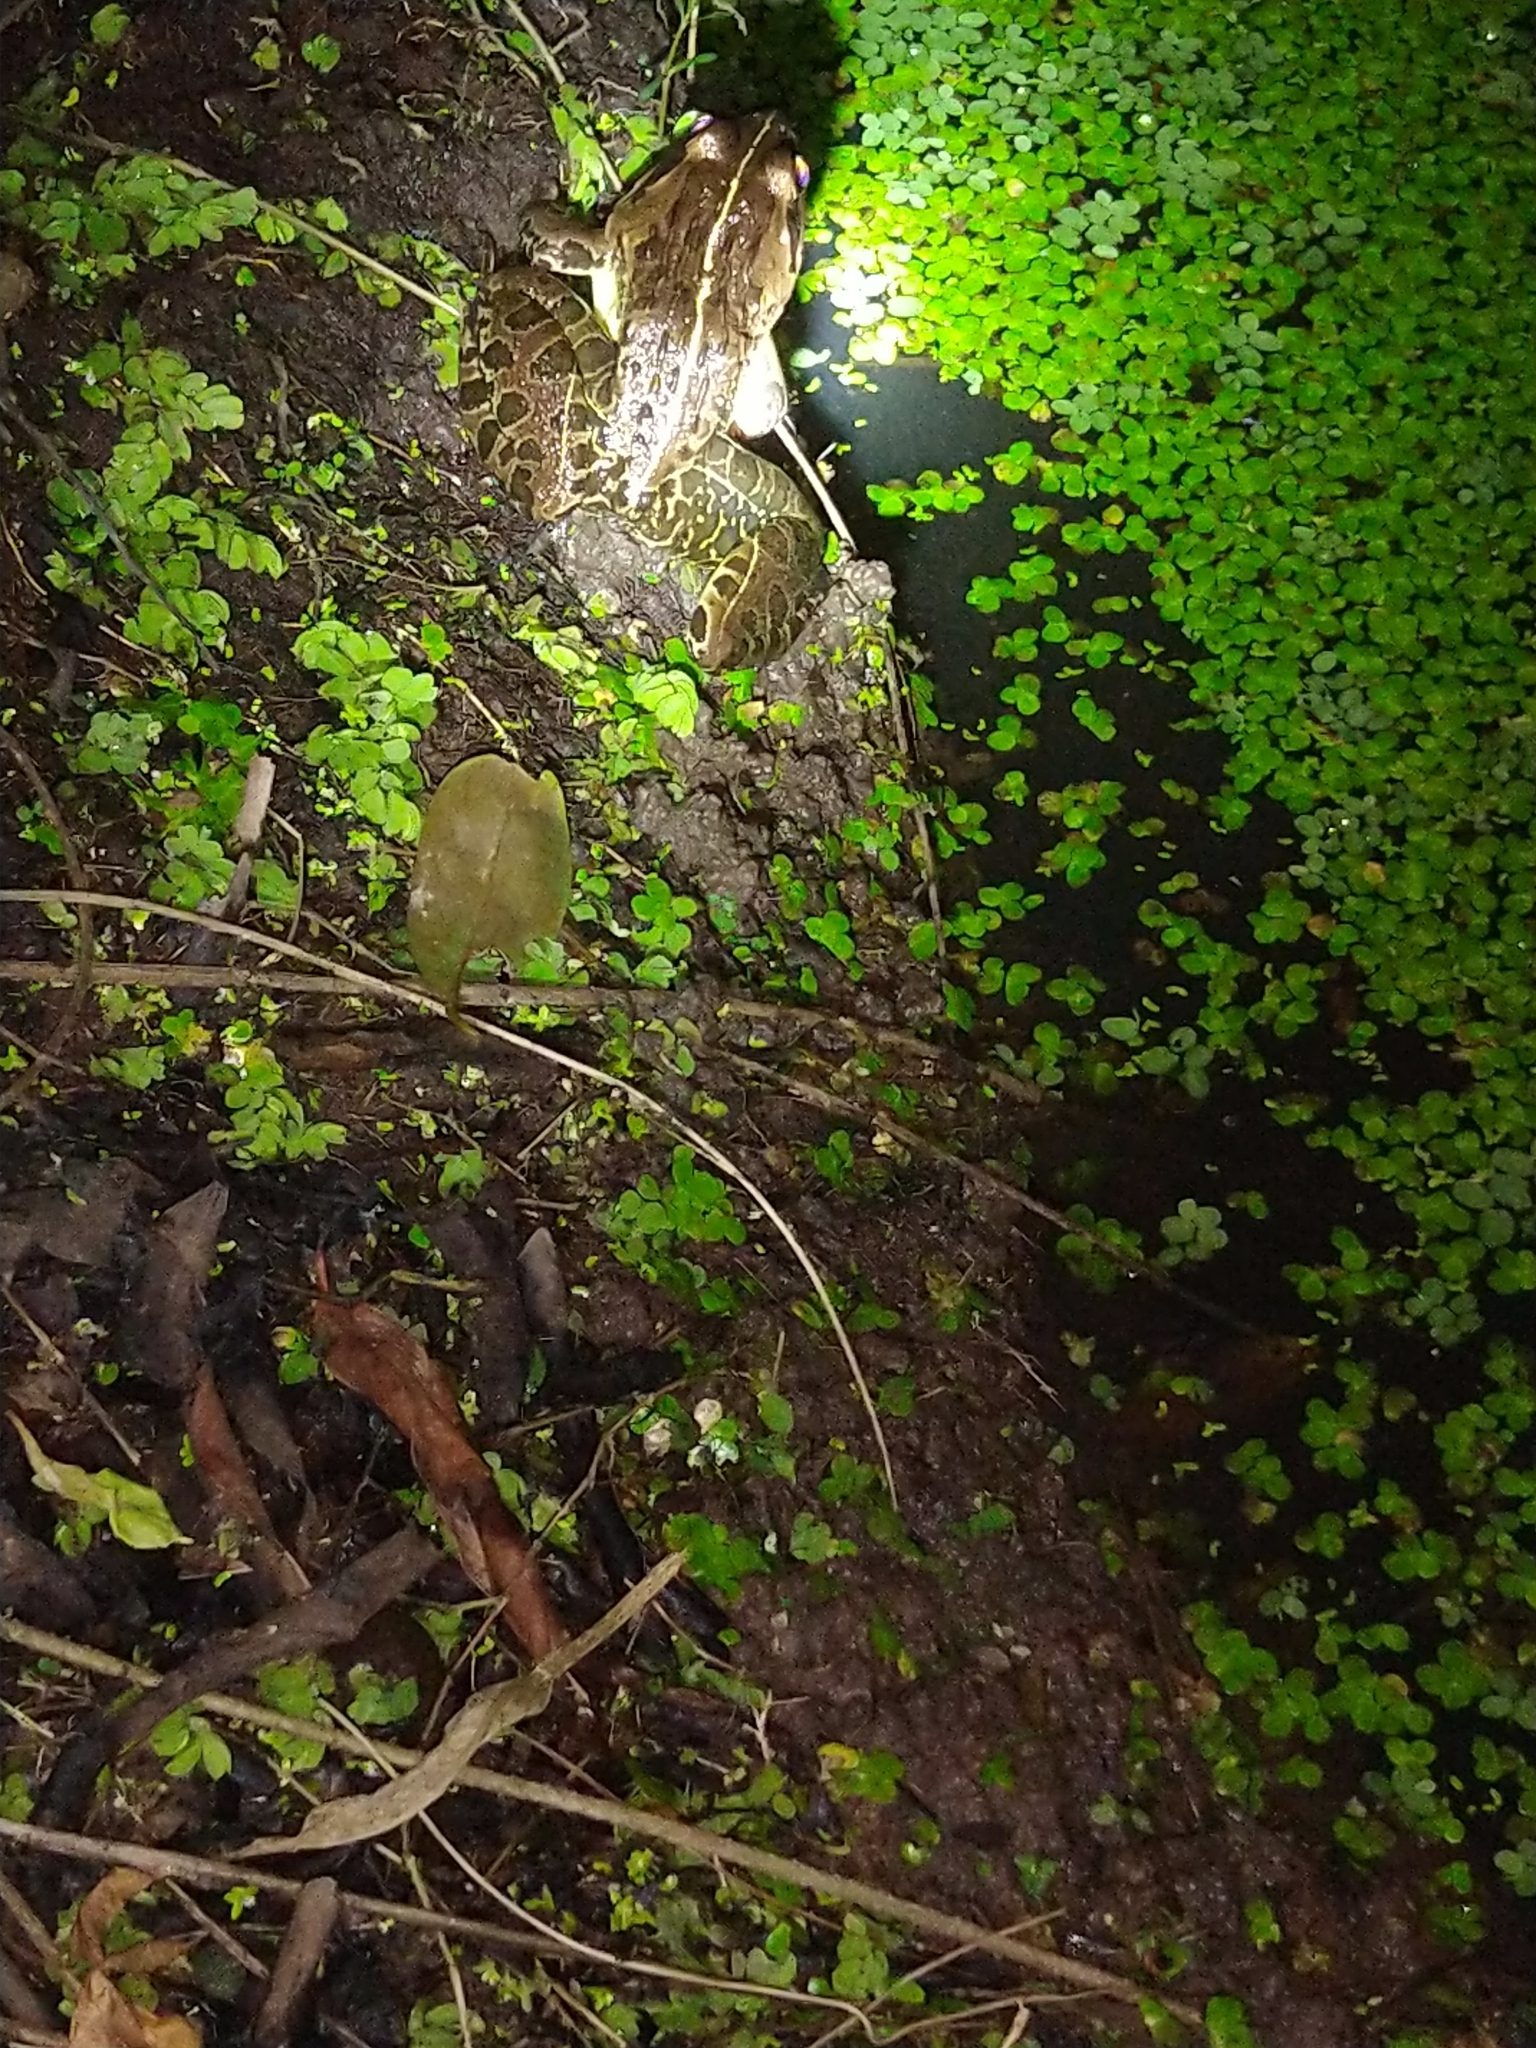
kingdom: Animalia
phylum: Chordata
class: Amphibia
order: Anura
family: Dicroglossidae
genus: Hoplobatrachus
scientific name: Hoplobatrachus tigerinus
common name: Indian bullfrog
